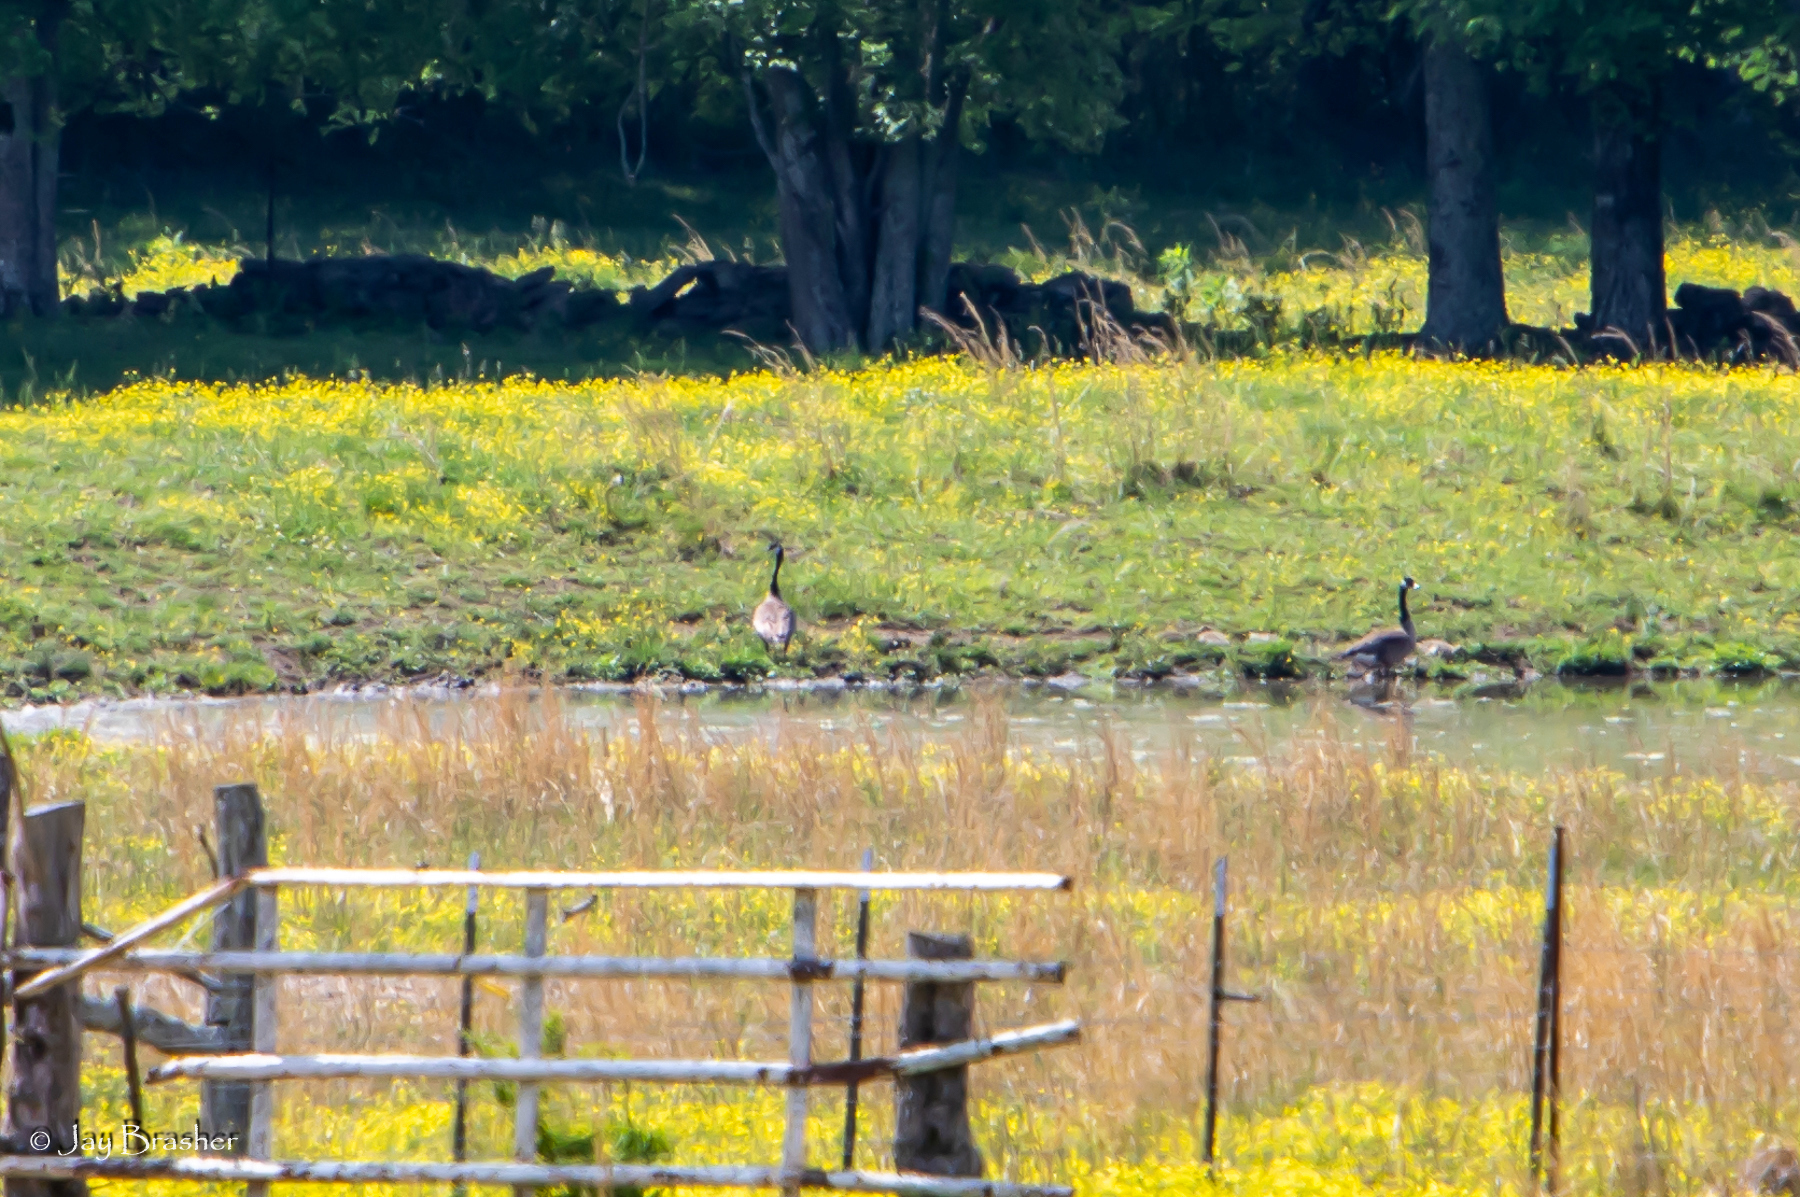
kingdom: Animalia
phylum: Chordata
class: Aves
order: Anseriformes
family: Anatidae
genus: Branta
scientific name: Branta canadensis
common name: Canada goose
